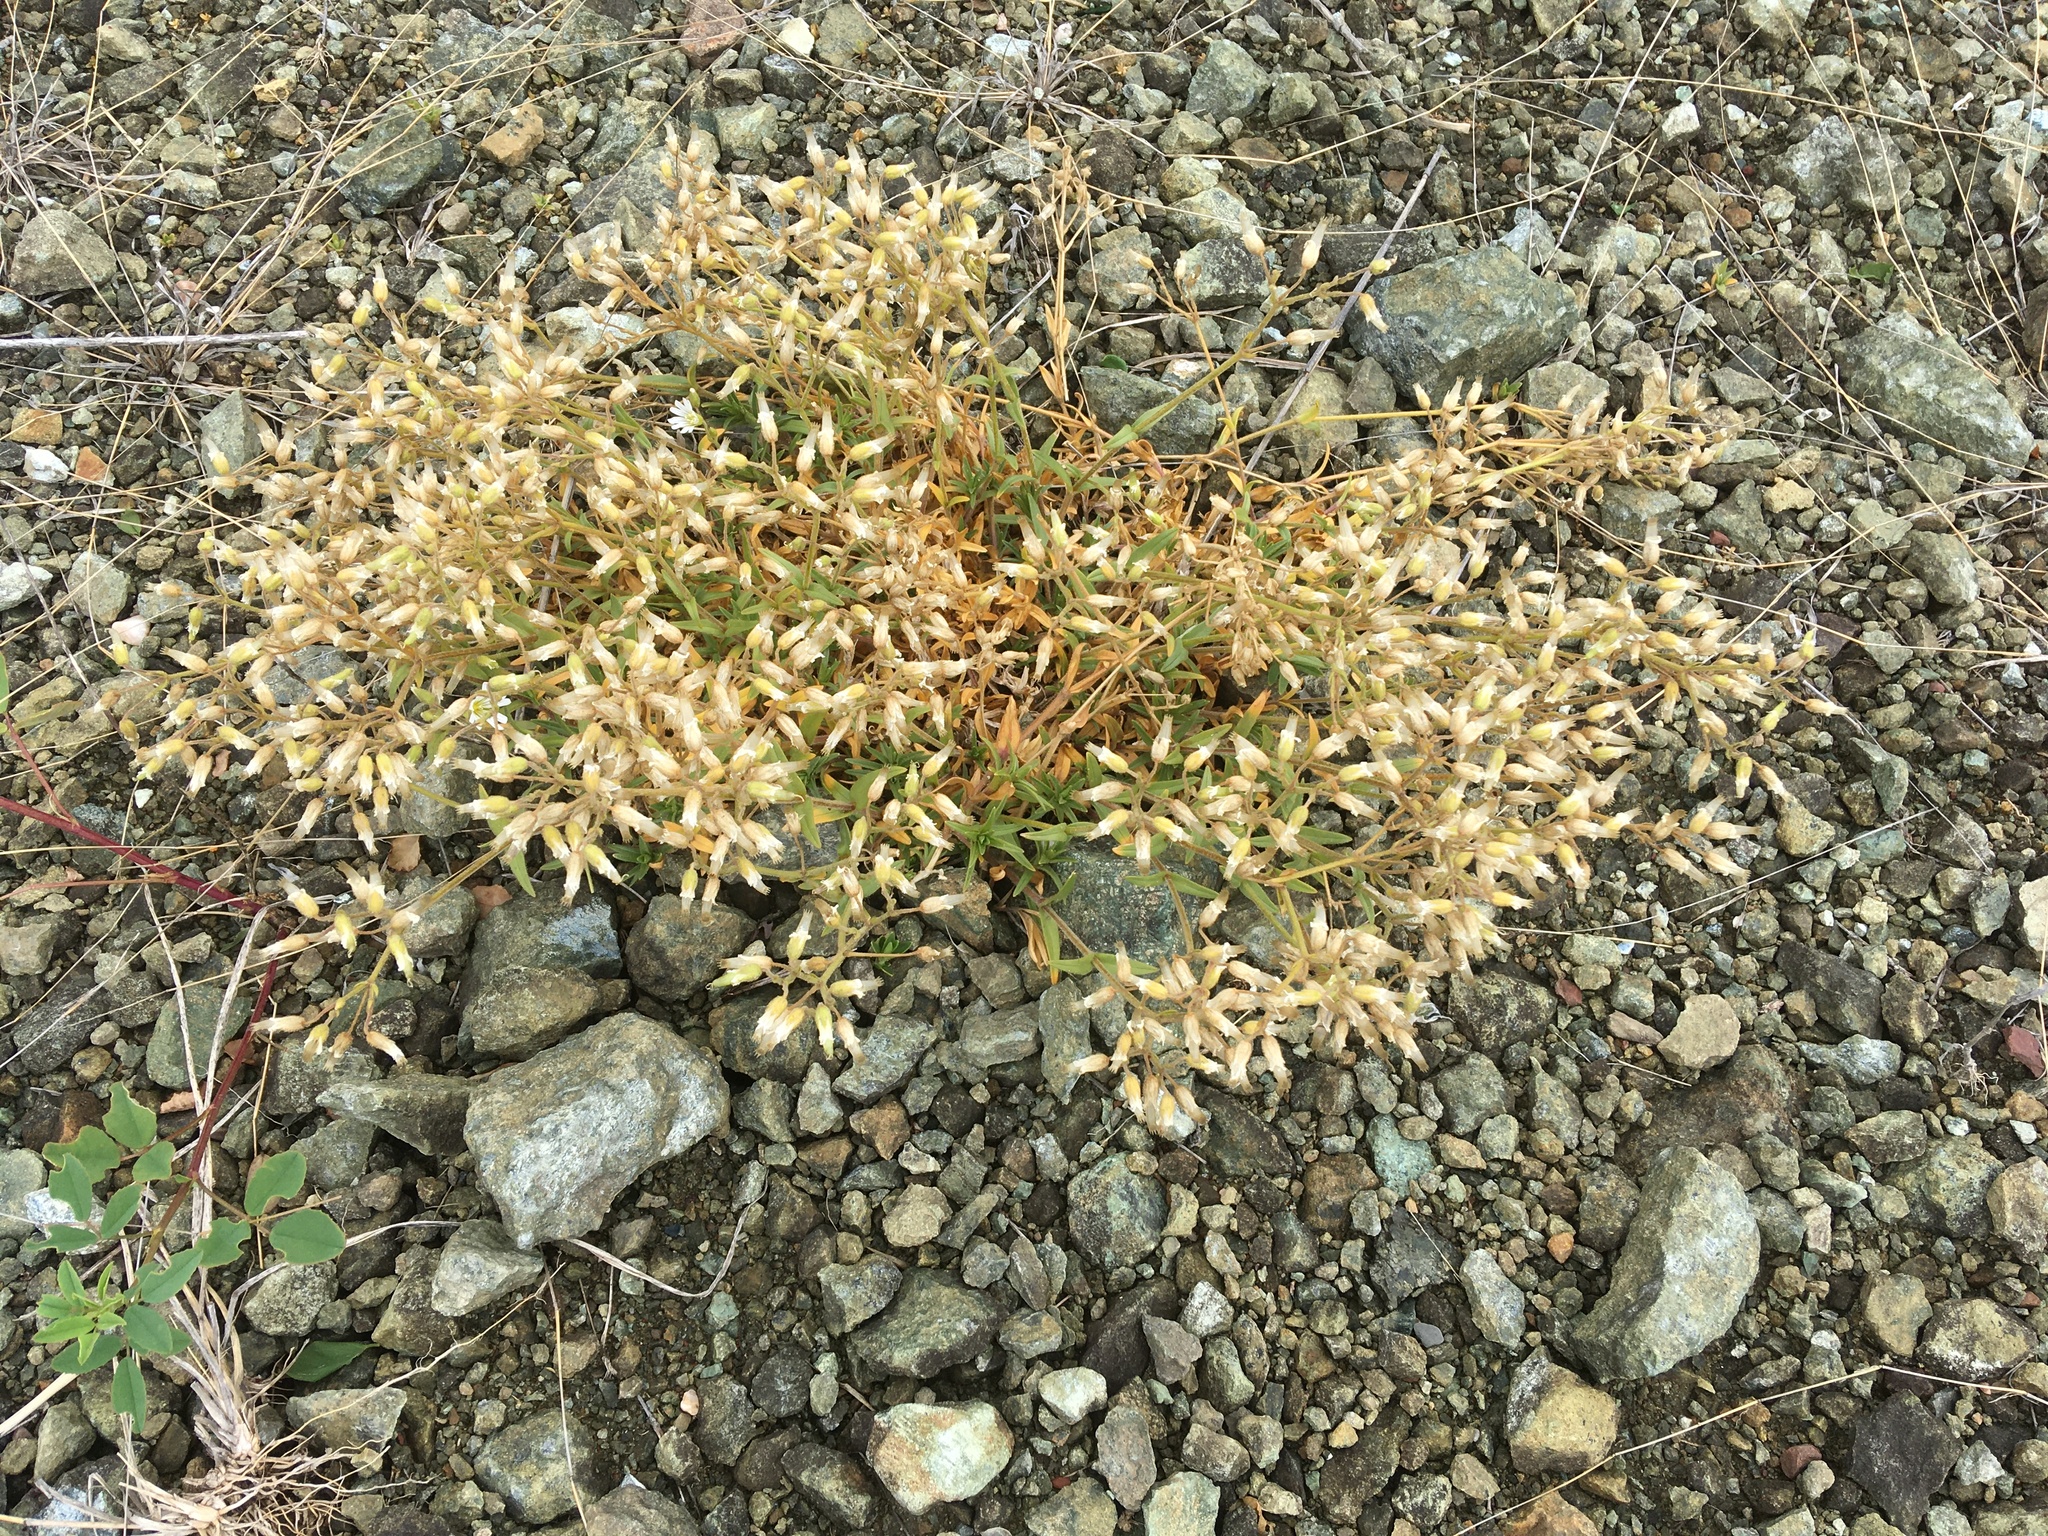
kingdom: Plantae
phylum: Tracheophyta
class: Magnoliopsida
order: Caryophyllales
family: Caryophyllaceae
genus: Cerastium
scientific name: Cerastium arvense
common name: Field mouse-ear
